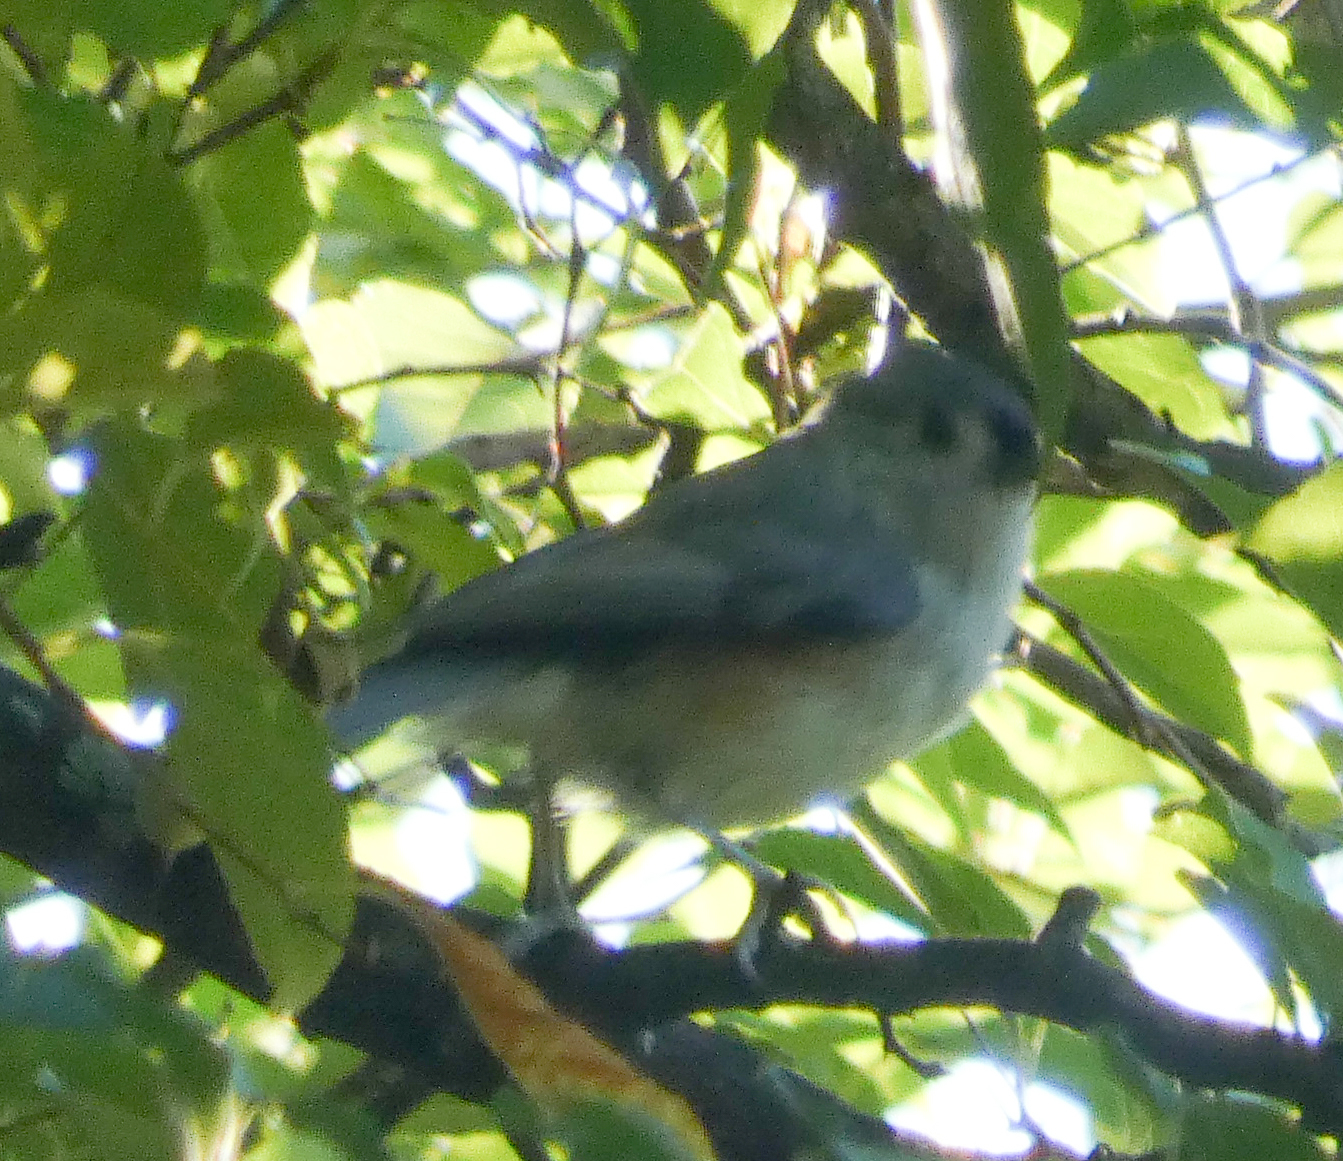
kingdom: Animalia
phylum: Chordata
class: Aves
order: Passeriformes
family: Paridae
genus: Baeolophus
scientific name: Baeolophus bicolor
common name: Tufted titmouse
